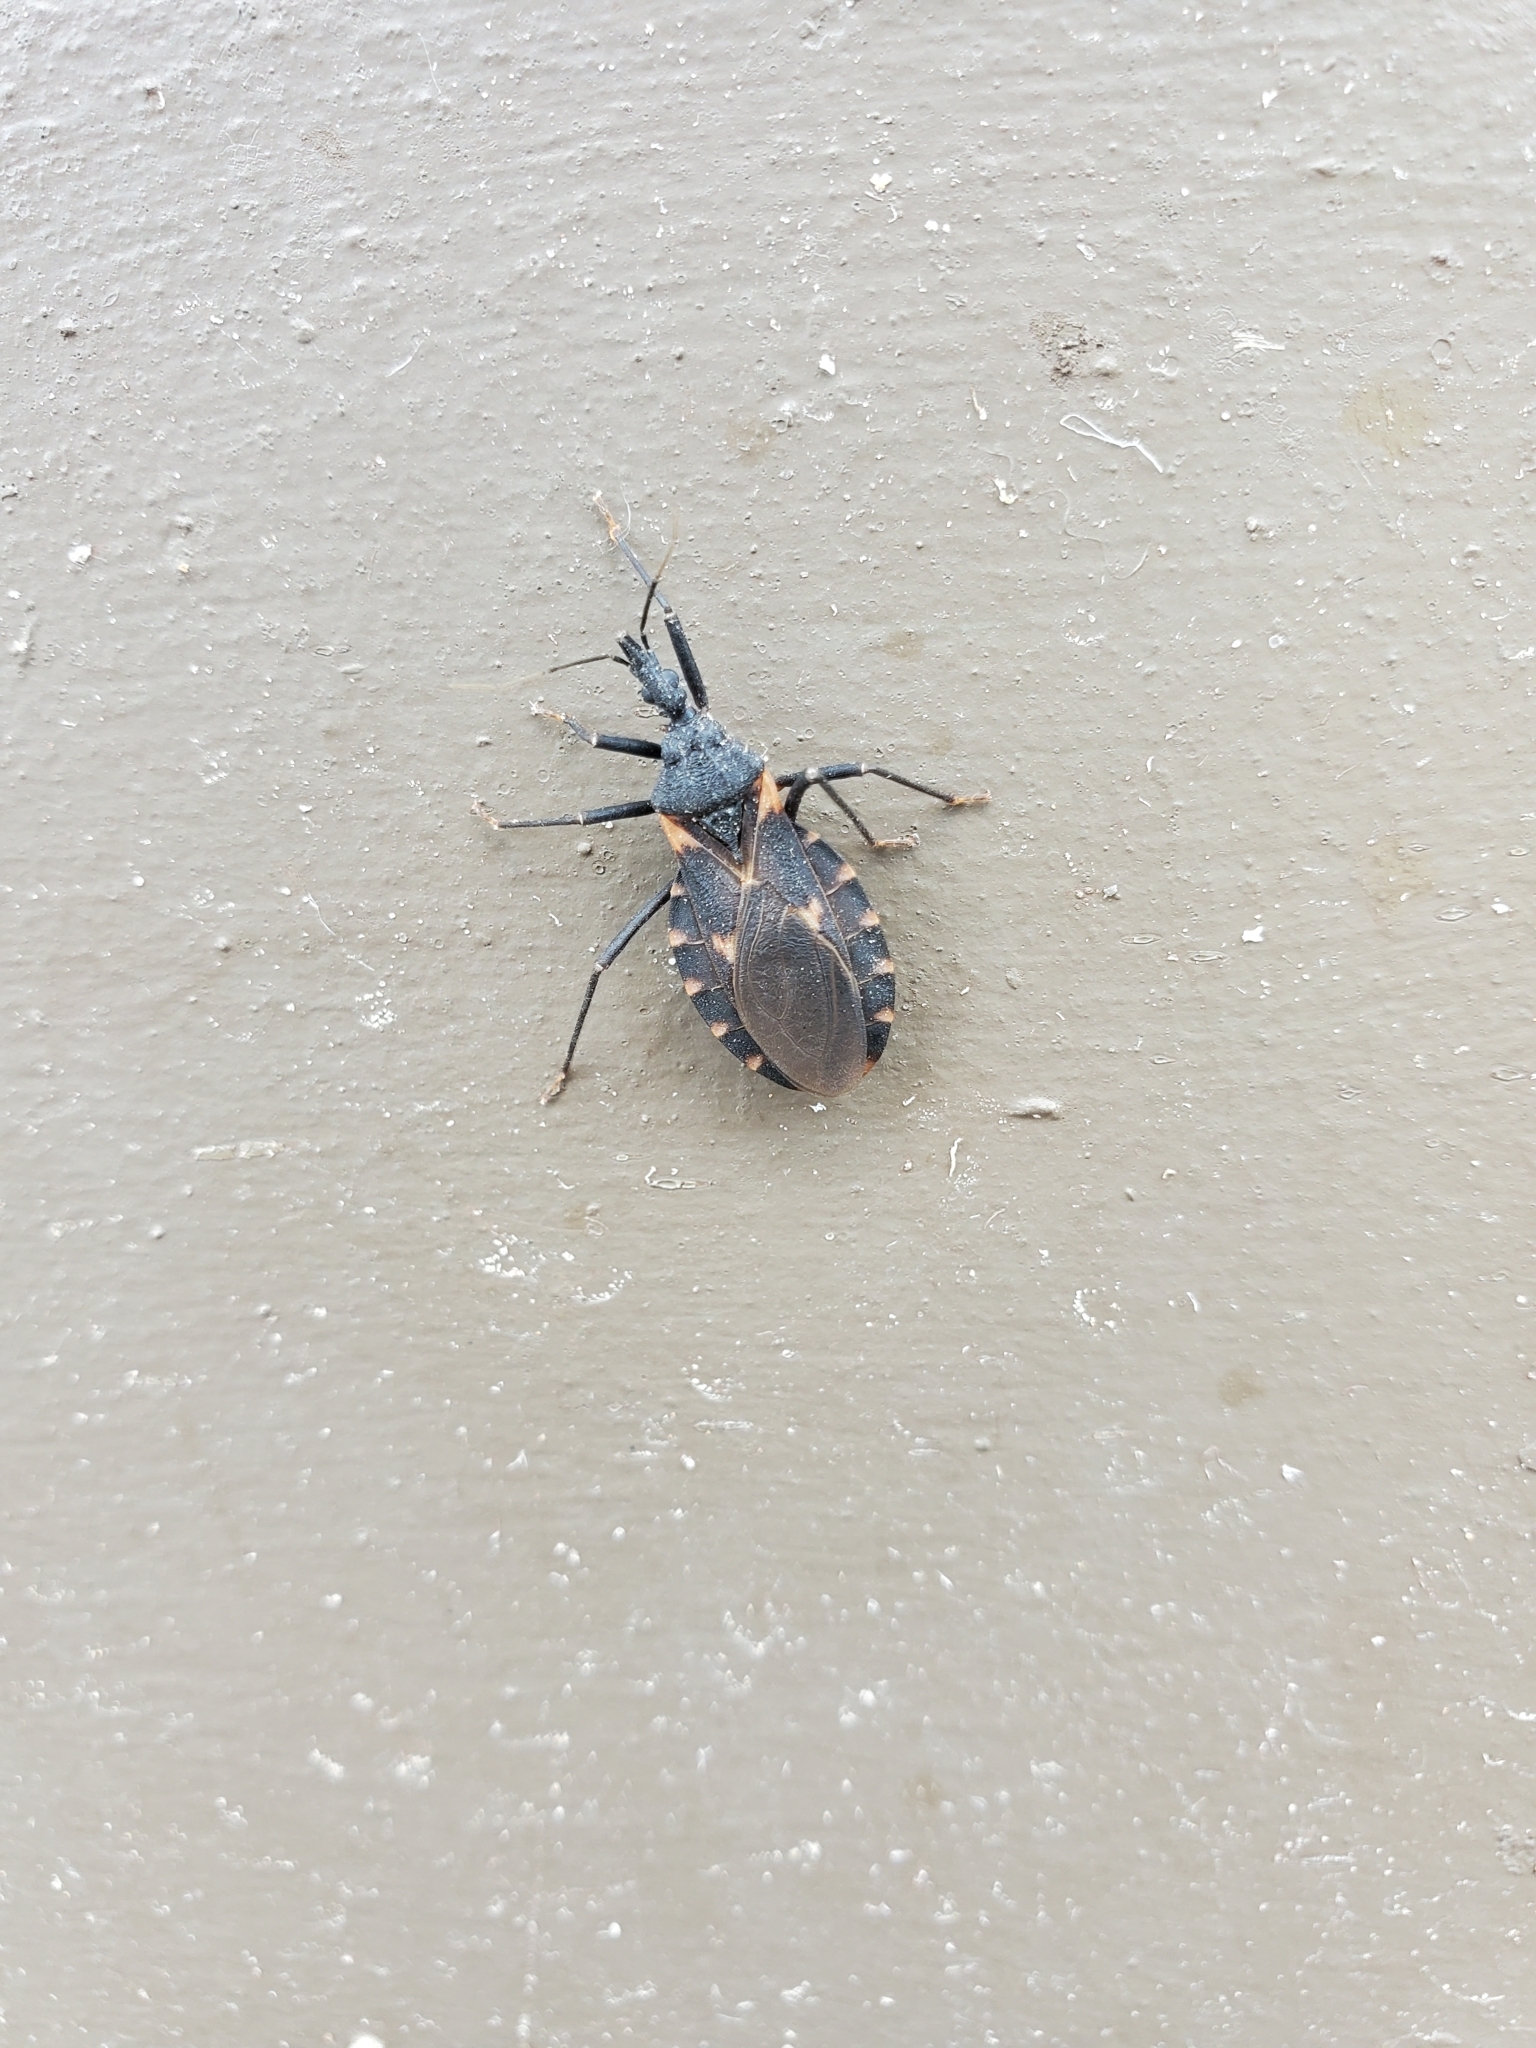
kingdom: Animalia
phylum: Arthropoda
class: Insecta
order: Hemiptera
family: Reduviidae
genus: Triatoma
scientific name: Triatoma sanguisuga
